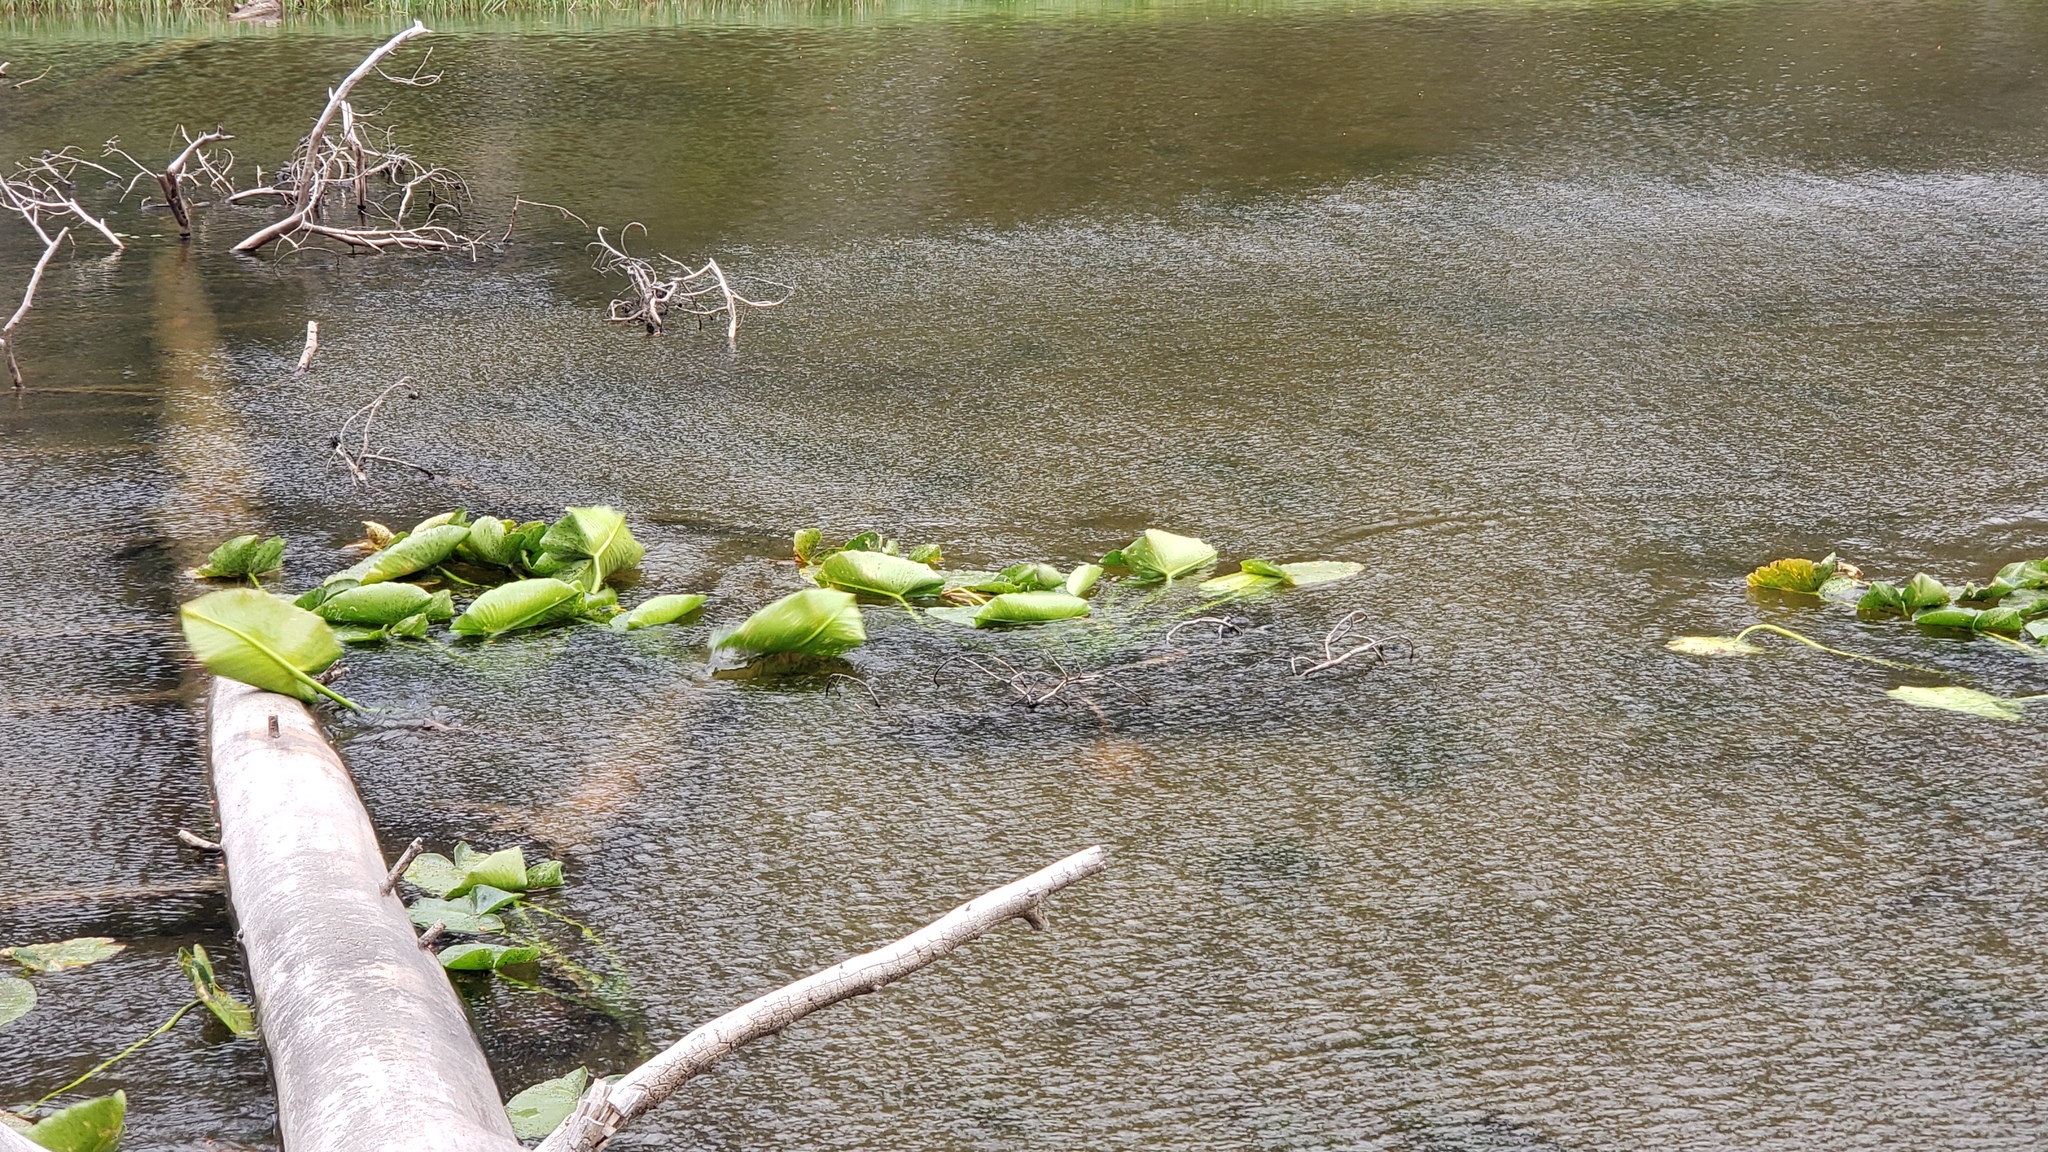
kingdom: Plantae
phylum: Tracheophyta
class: Magnoliopsida
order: Nymphaeales
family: Nymphaeaceae
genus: Nuphar
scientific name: Nuphar polysepala
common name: Rocky mountain cow-lily
